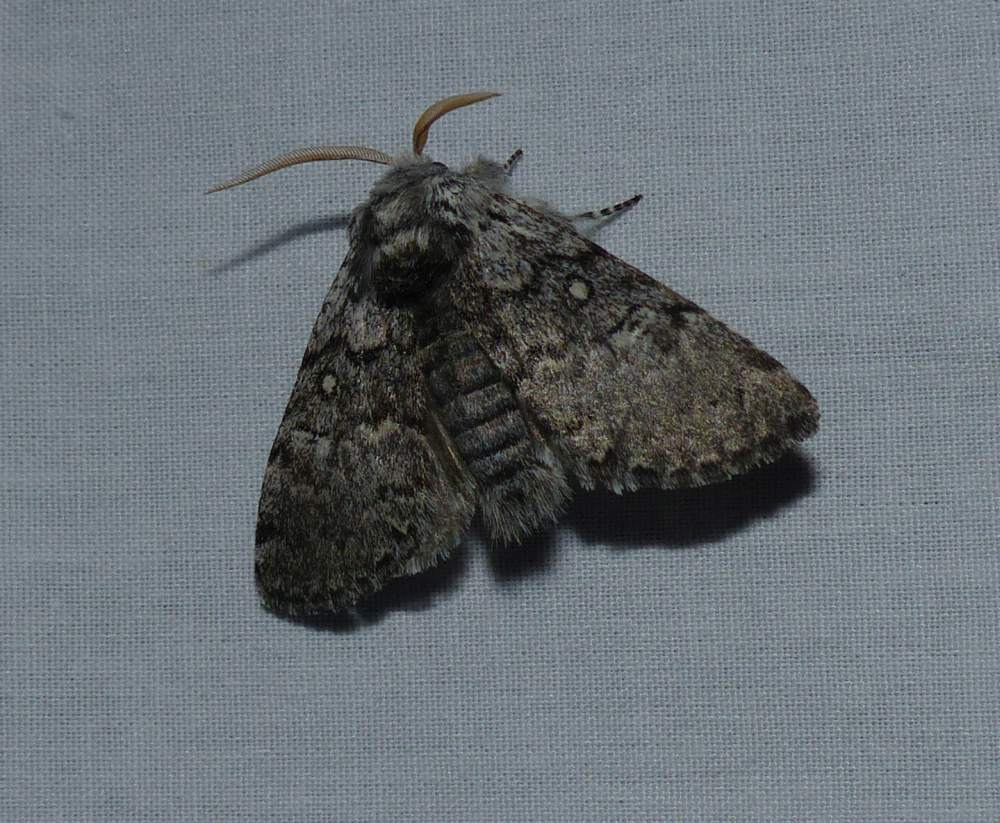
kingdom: Animalia
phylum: Arthropoda
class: Insecta
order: Lepidoptera
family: Noctuidae
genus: Colocasia
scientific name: Colocasia propinquilinea
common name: Close-banded demas
